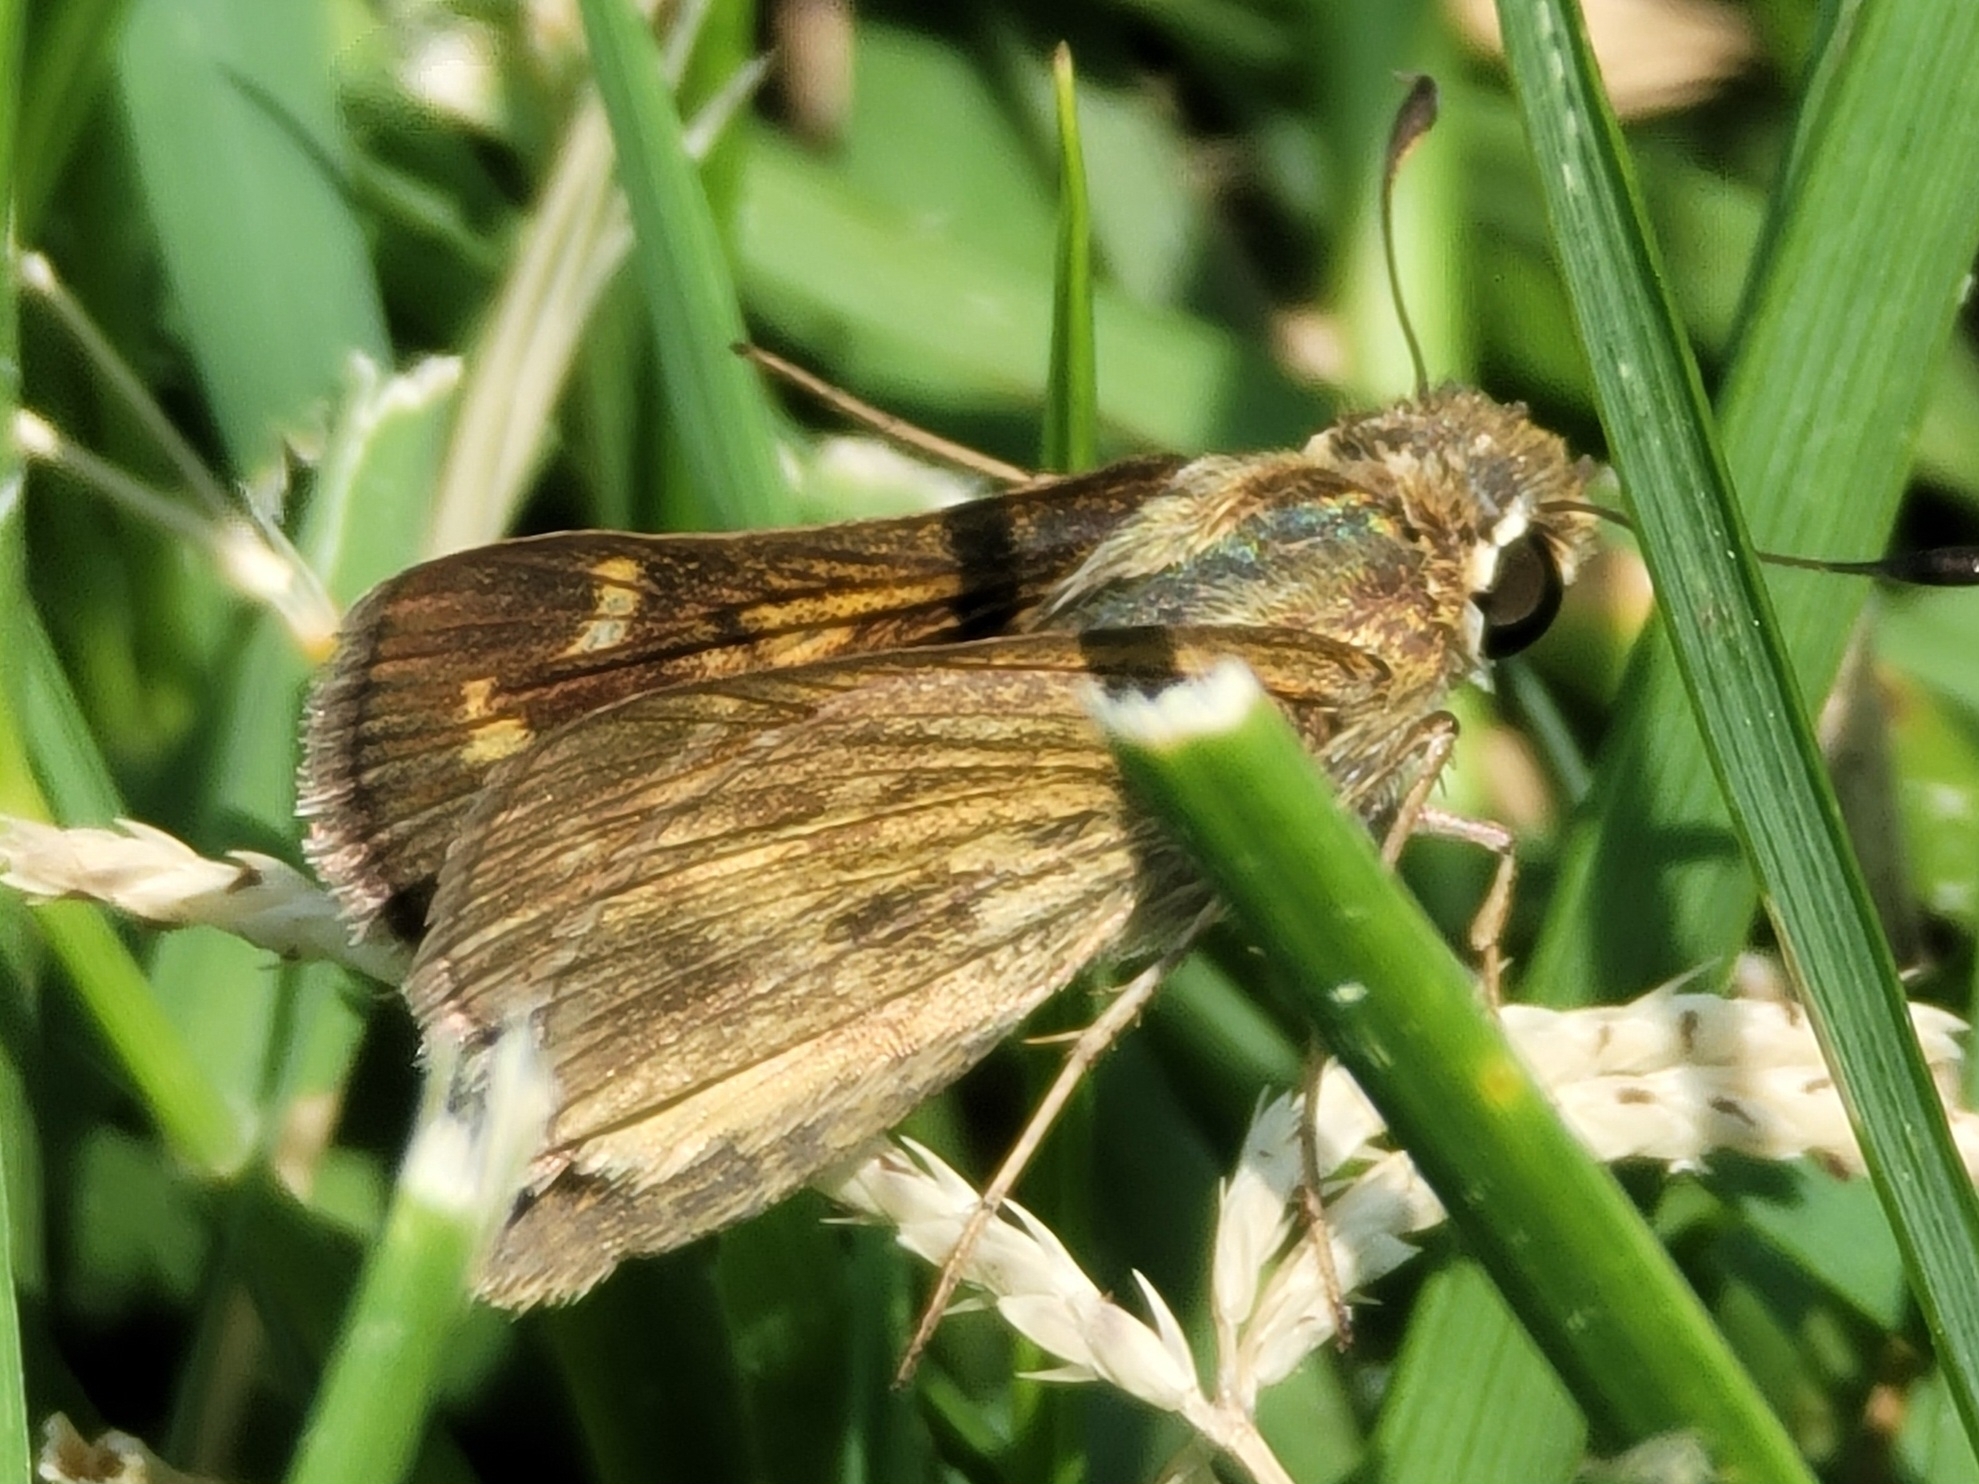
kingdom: Animalia
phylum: Arthropoda
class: Insecta
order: Lepidoptera
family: Hesperiidae
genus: Atalopedes
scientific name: Atalopedes
